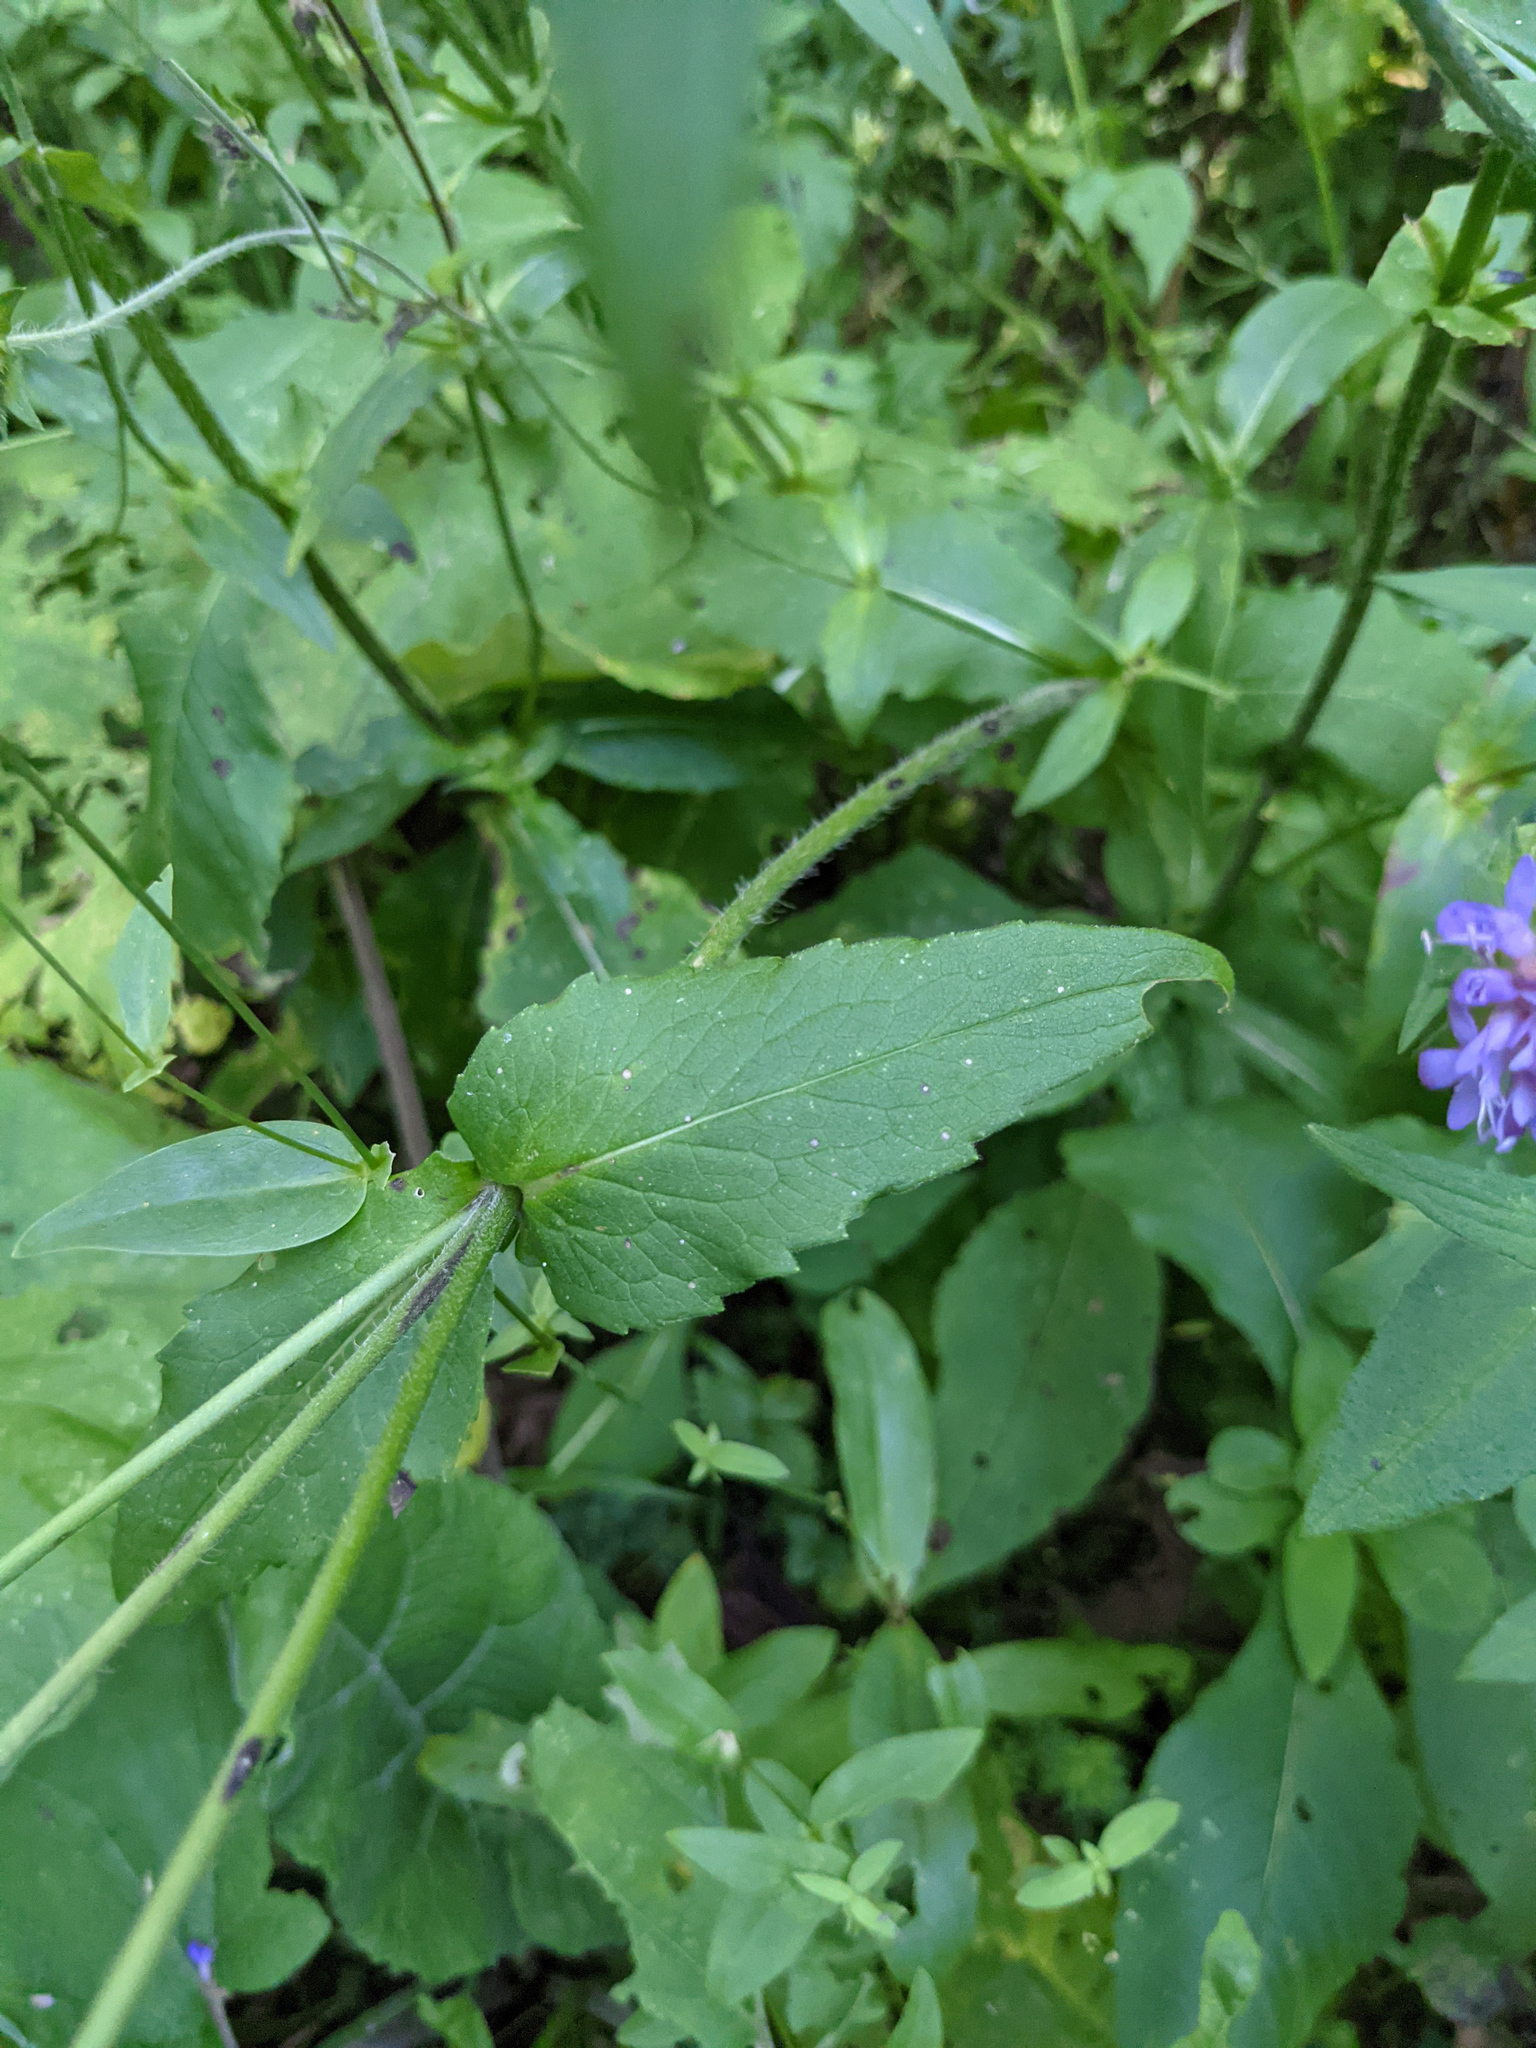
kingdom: Plantae
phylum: Tracheophyta
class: Magnoliopsida
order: Dipsacales
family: Caprifoliaceae
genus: Knautia
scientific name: Knautia dipsacifolia
